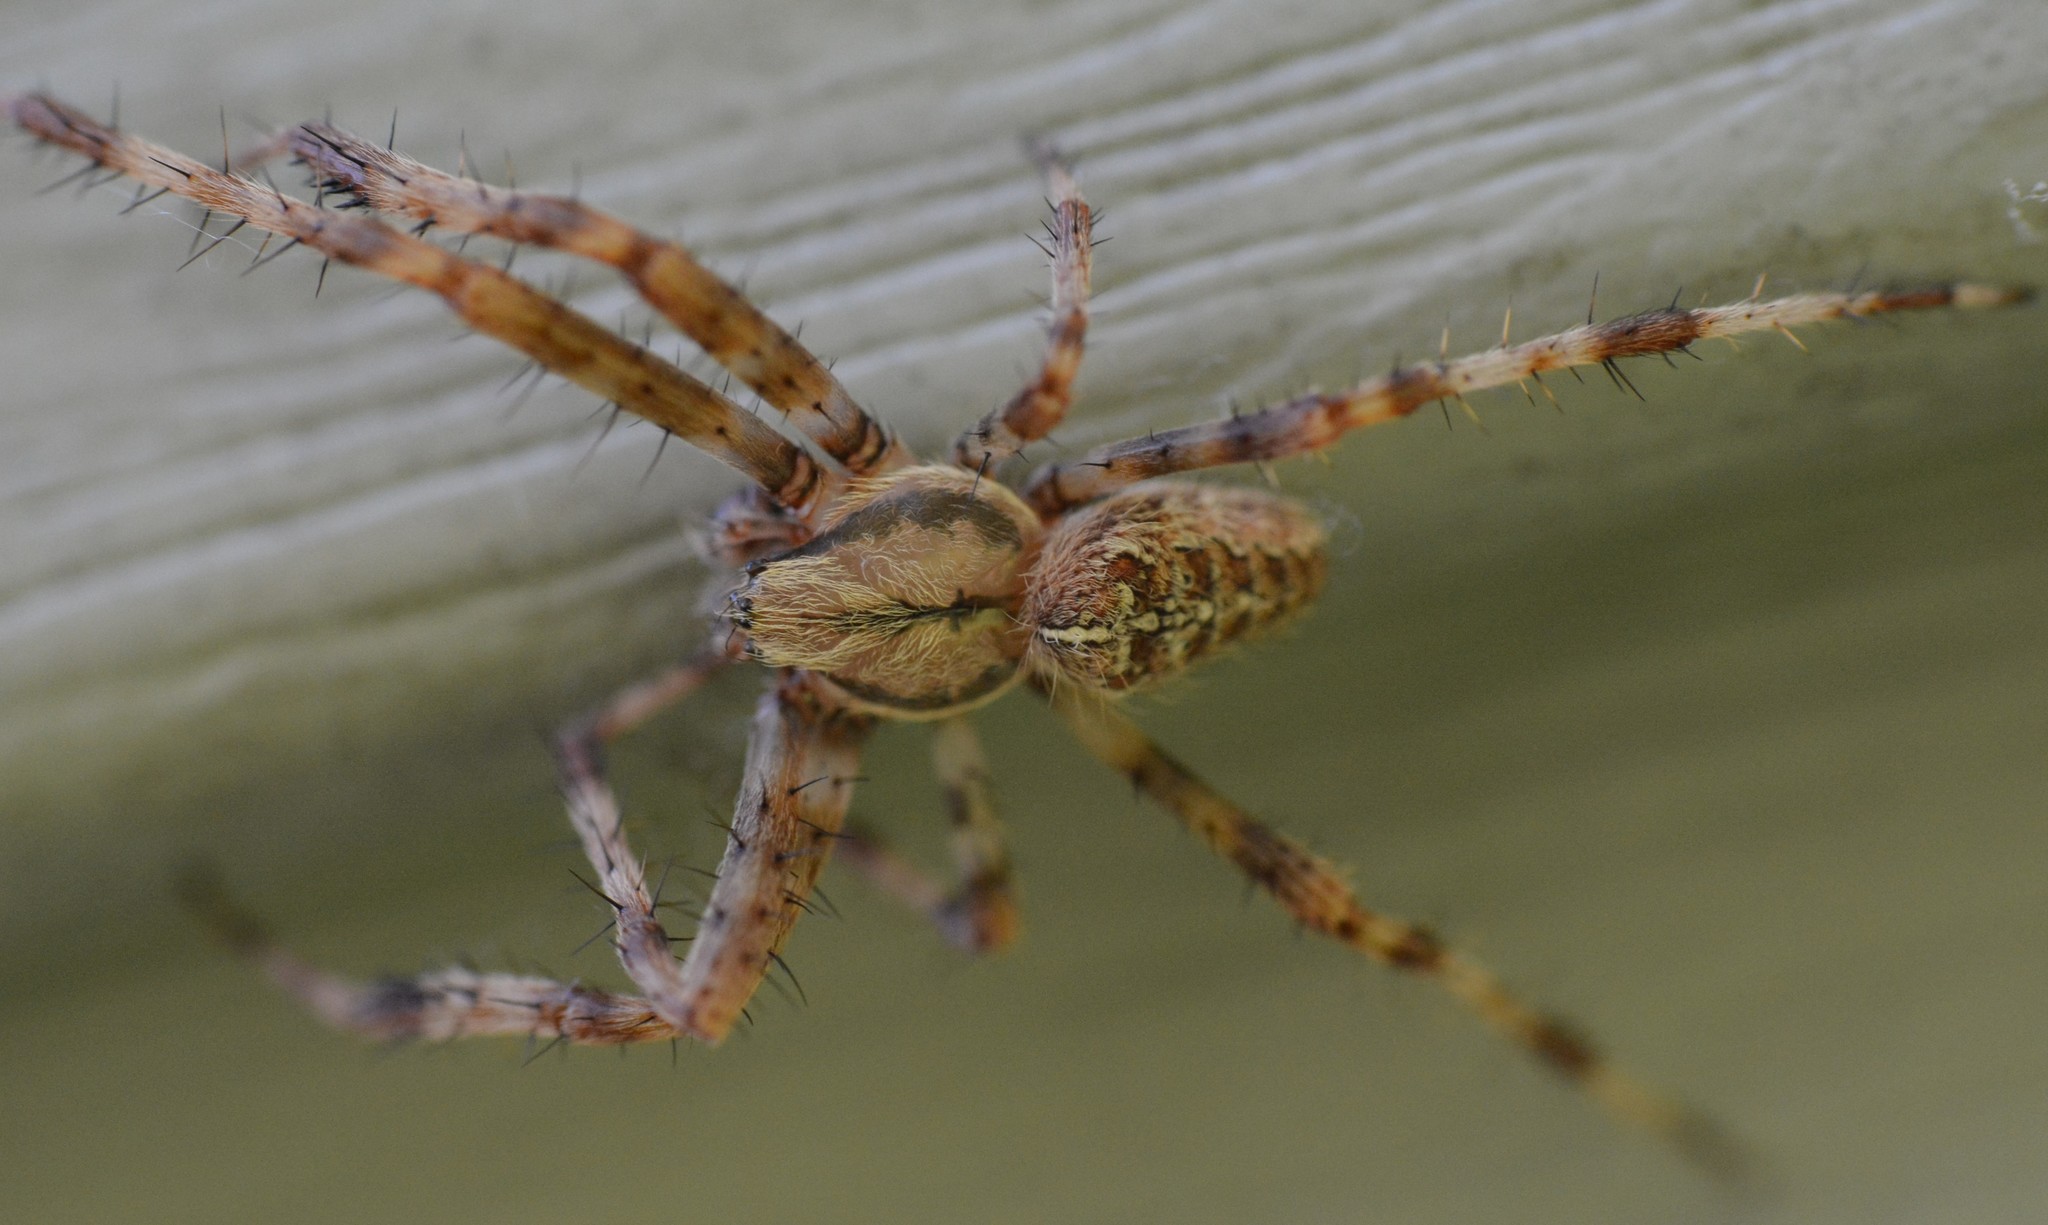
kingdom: Animalia
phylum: Arthropoda
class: Arachnida
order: Araneae
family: Araneidae
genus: Araneus
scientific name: Araneus diadematus
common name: Cross orbweaver
